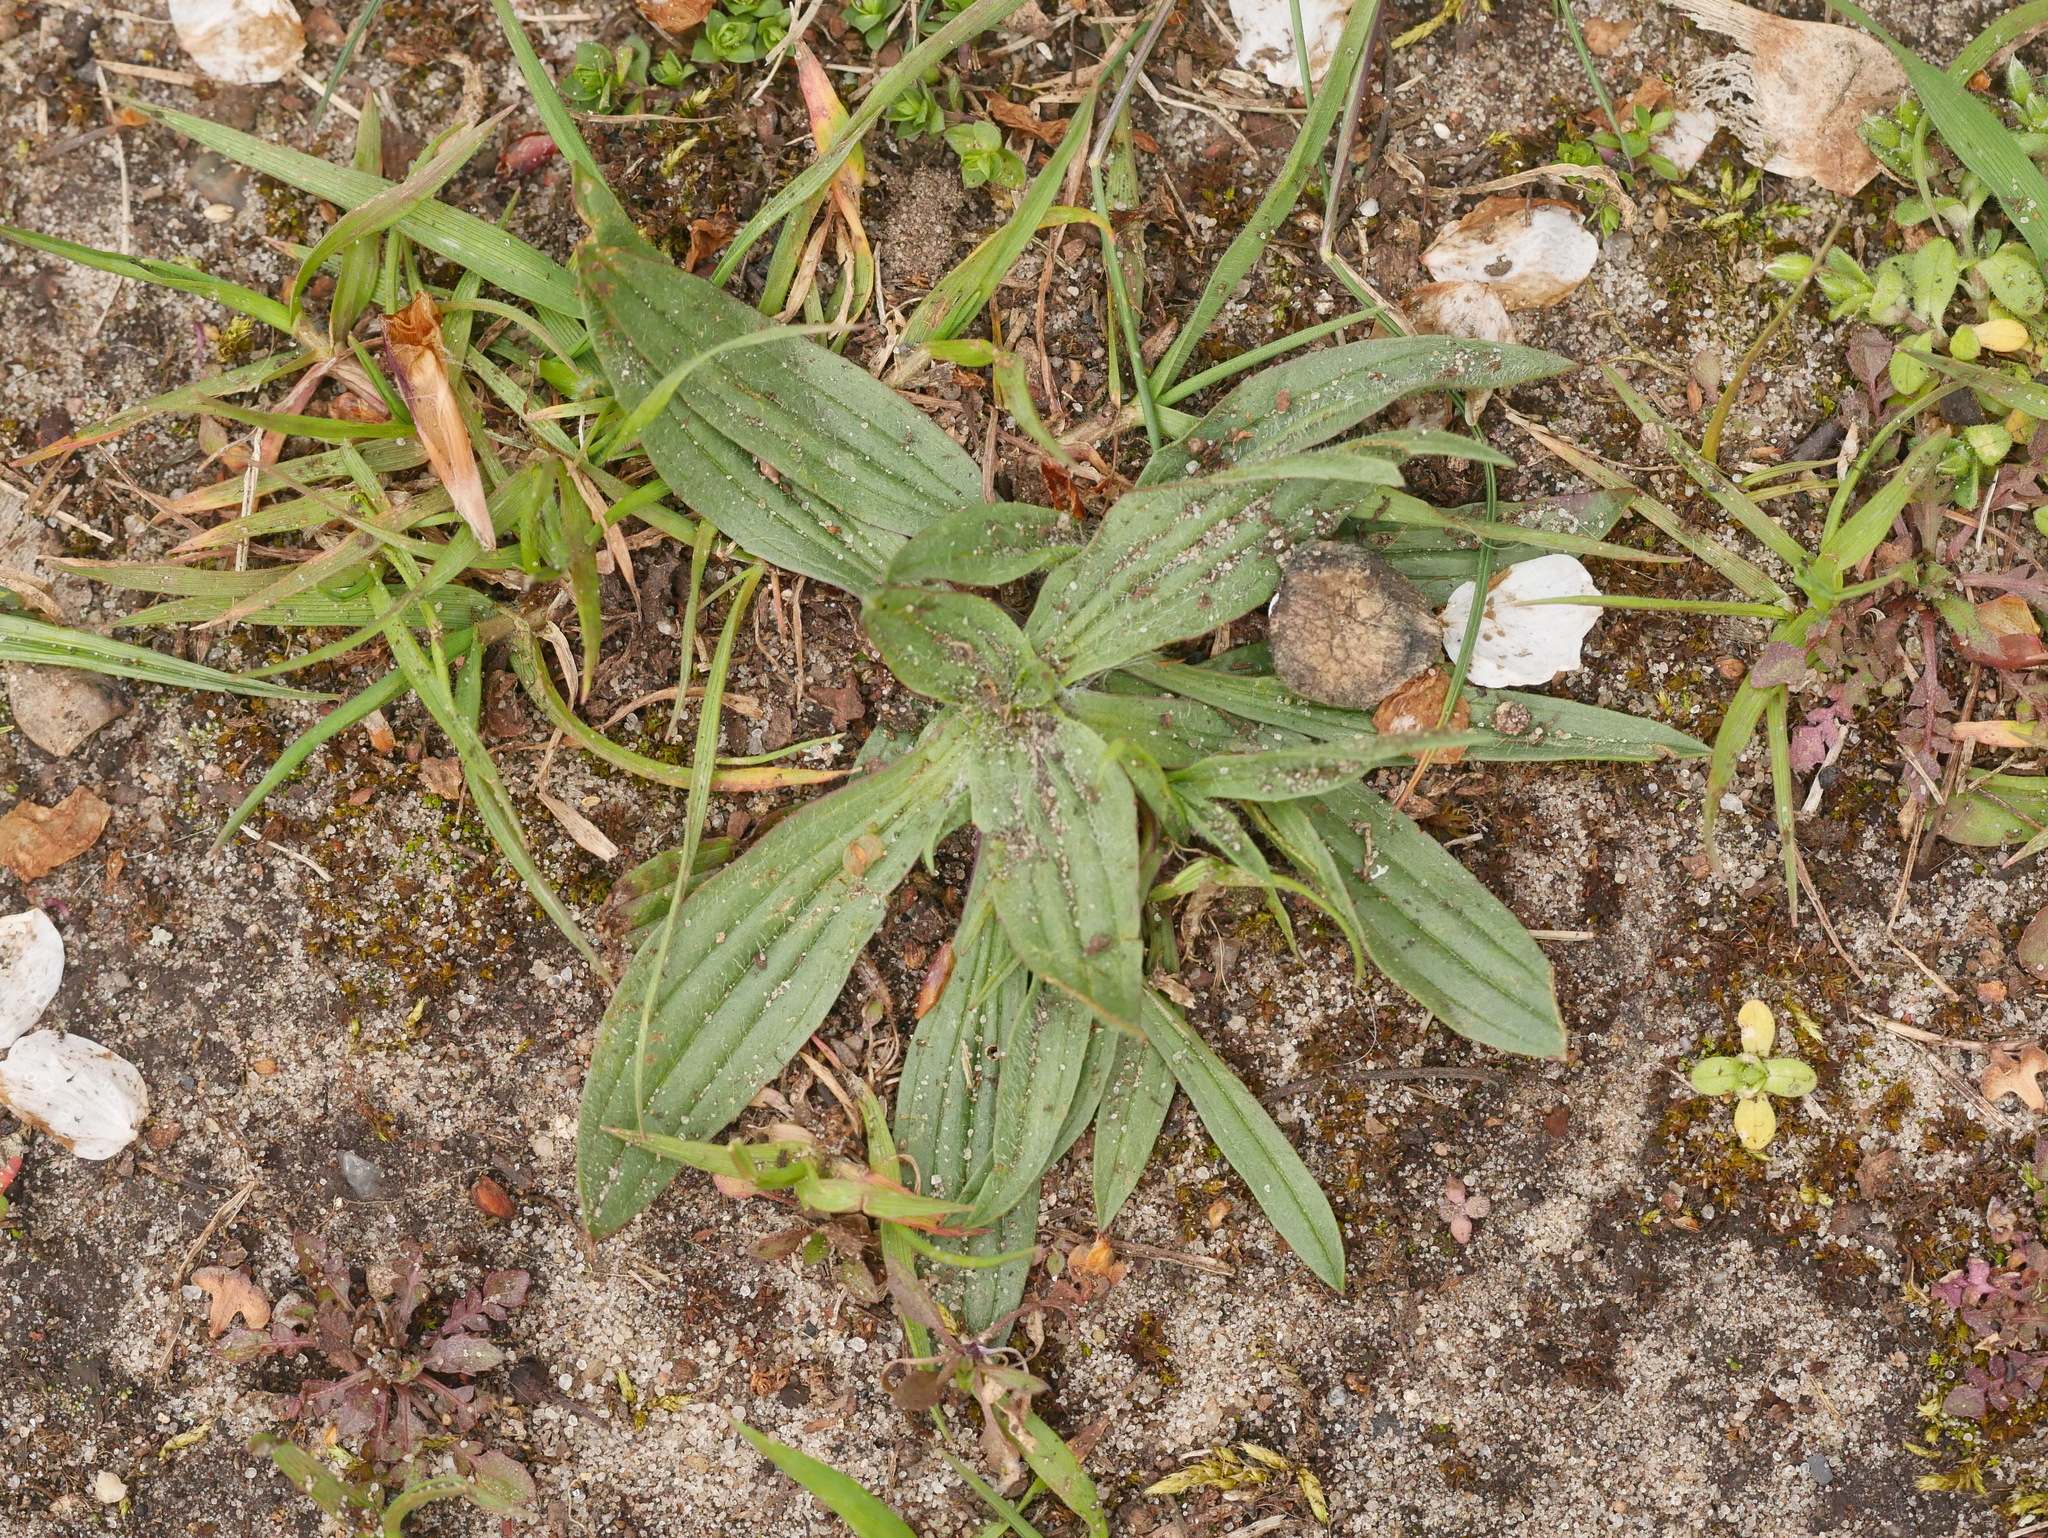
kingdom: Plantae
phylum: Tracheophyta
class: Magnoliopsida
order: Lamiales
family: Plantaginaceae
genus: Plantago
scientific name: Plantago lanceolata
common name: Ribwort plantain
